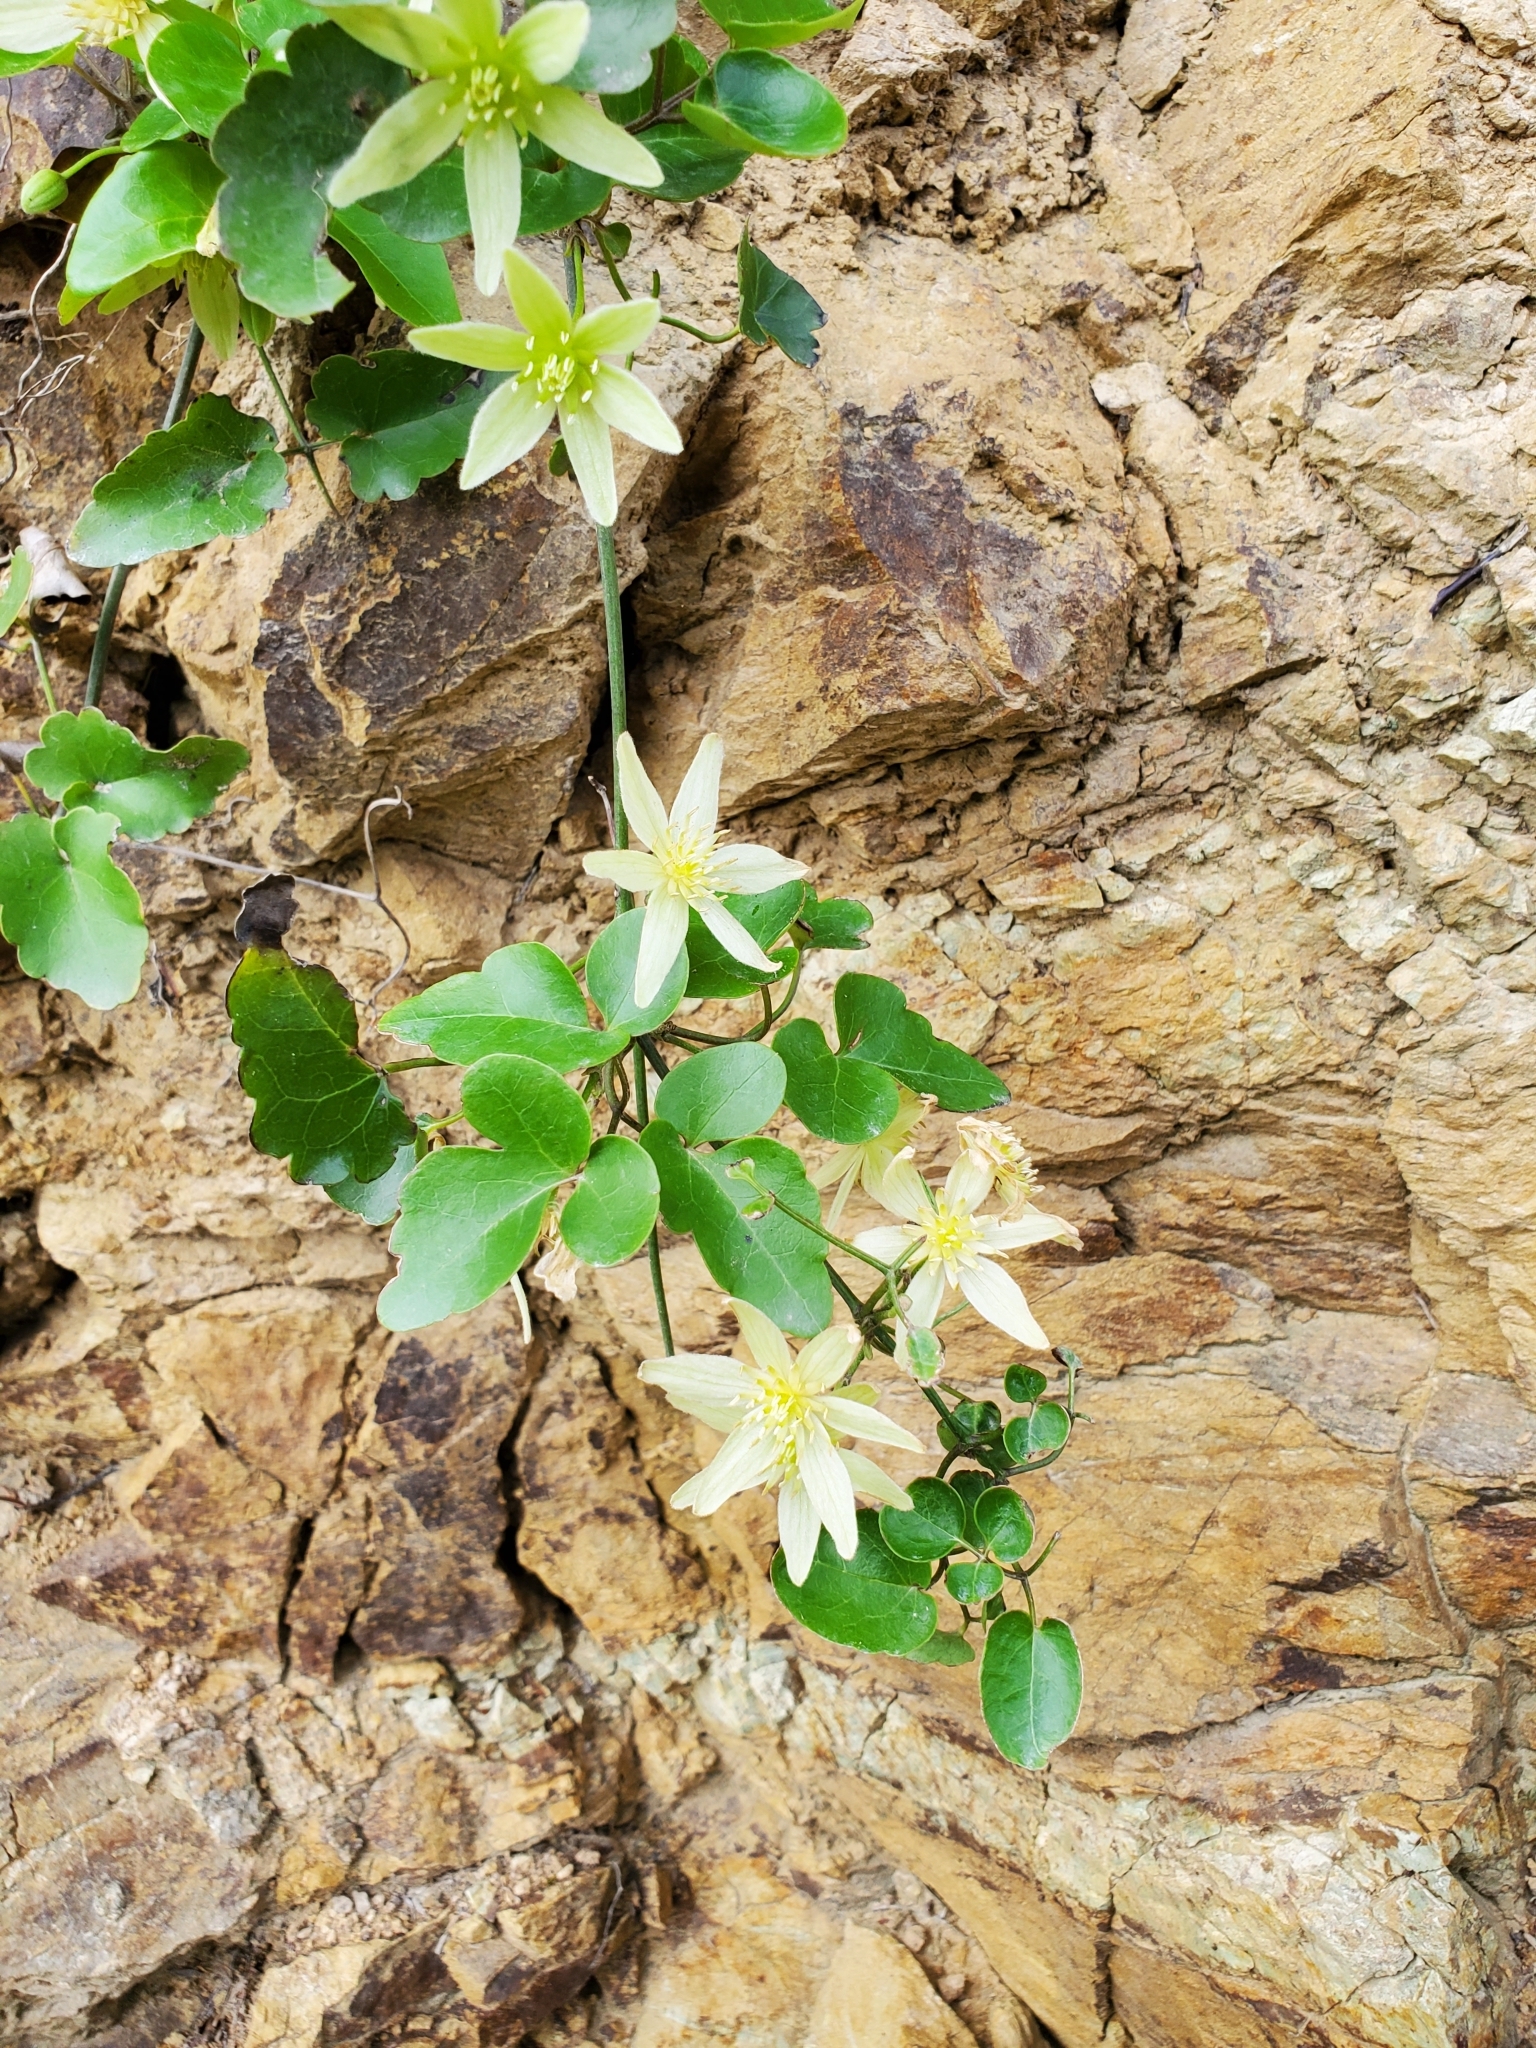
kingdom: Plantae
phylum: Tracheophyta
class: Magnoliopsida
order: Ranunculales
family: Ranunculaceae
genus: Clematis
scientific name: Clematis forsteri
